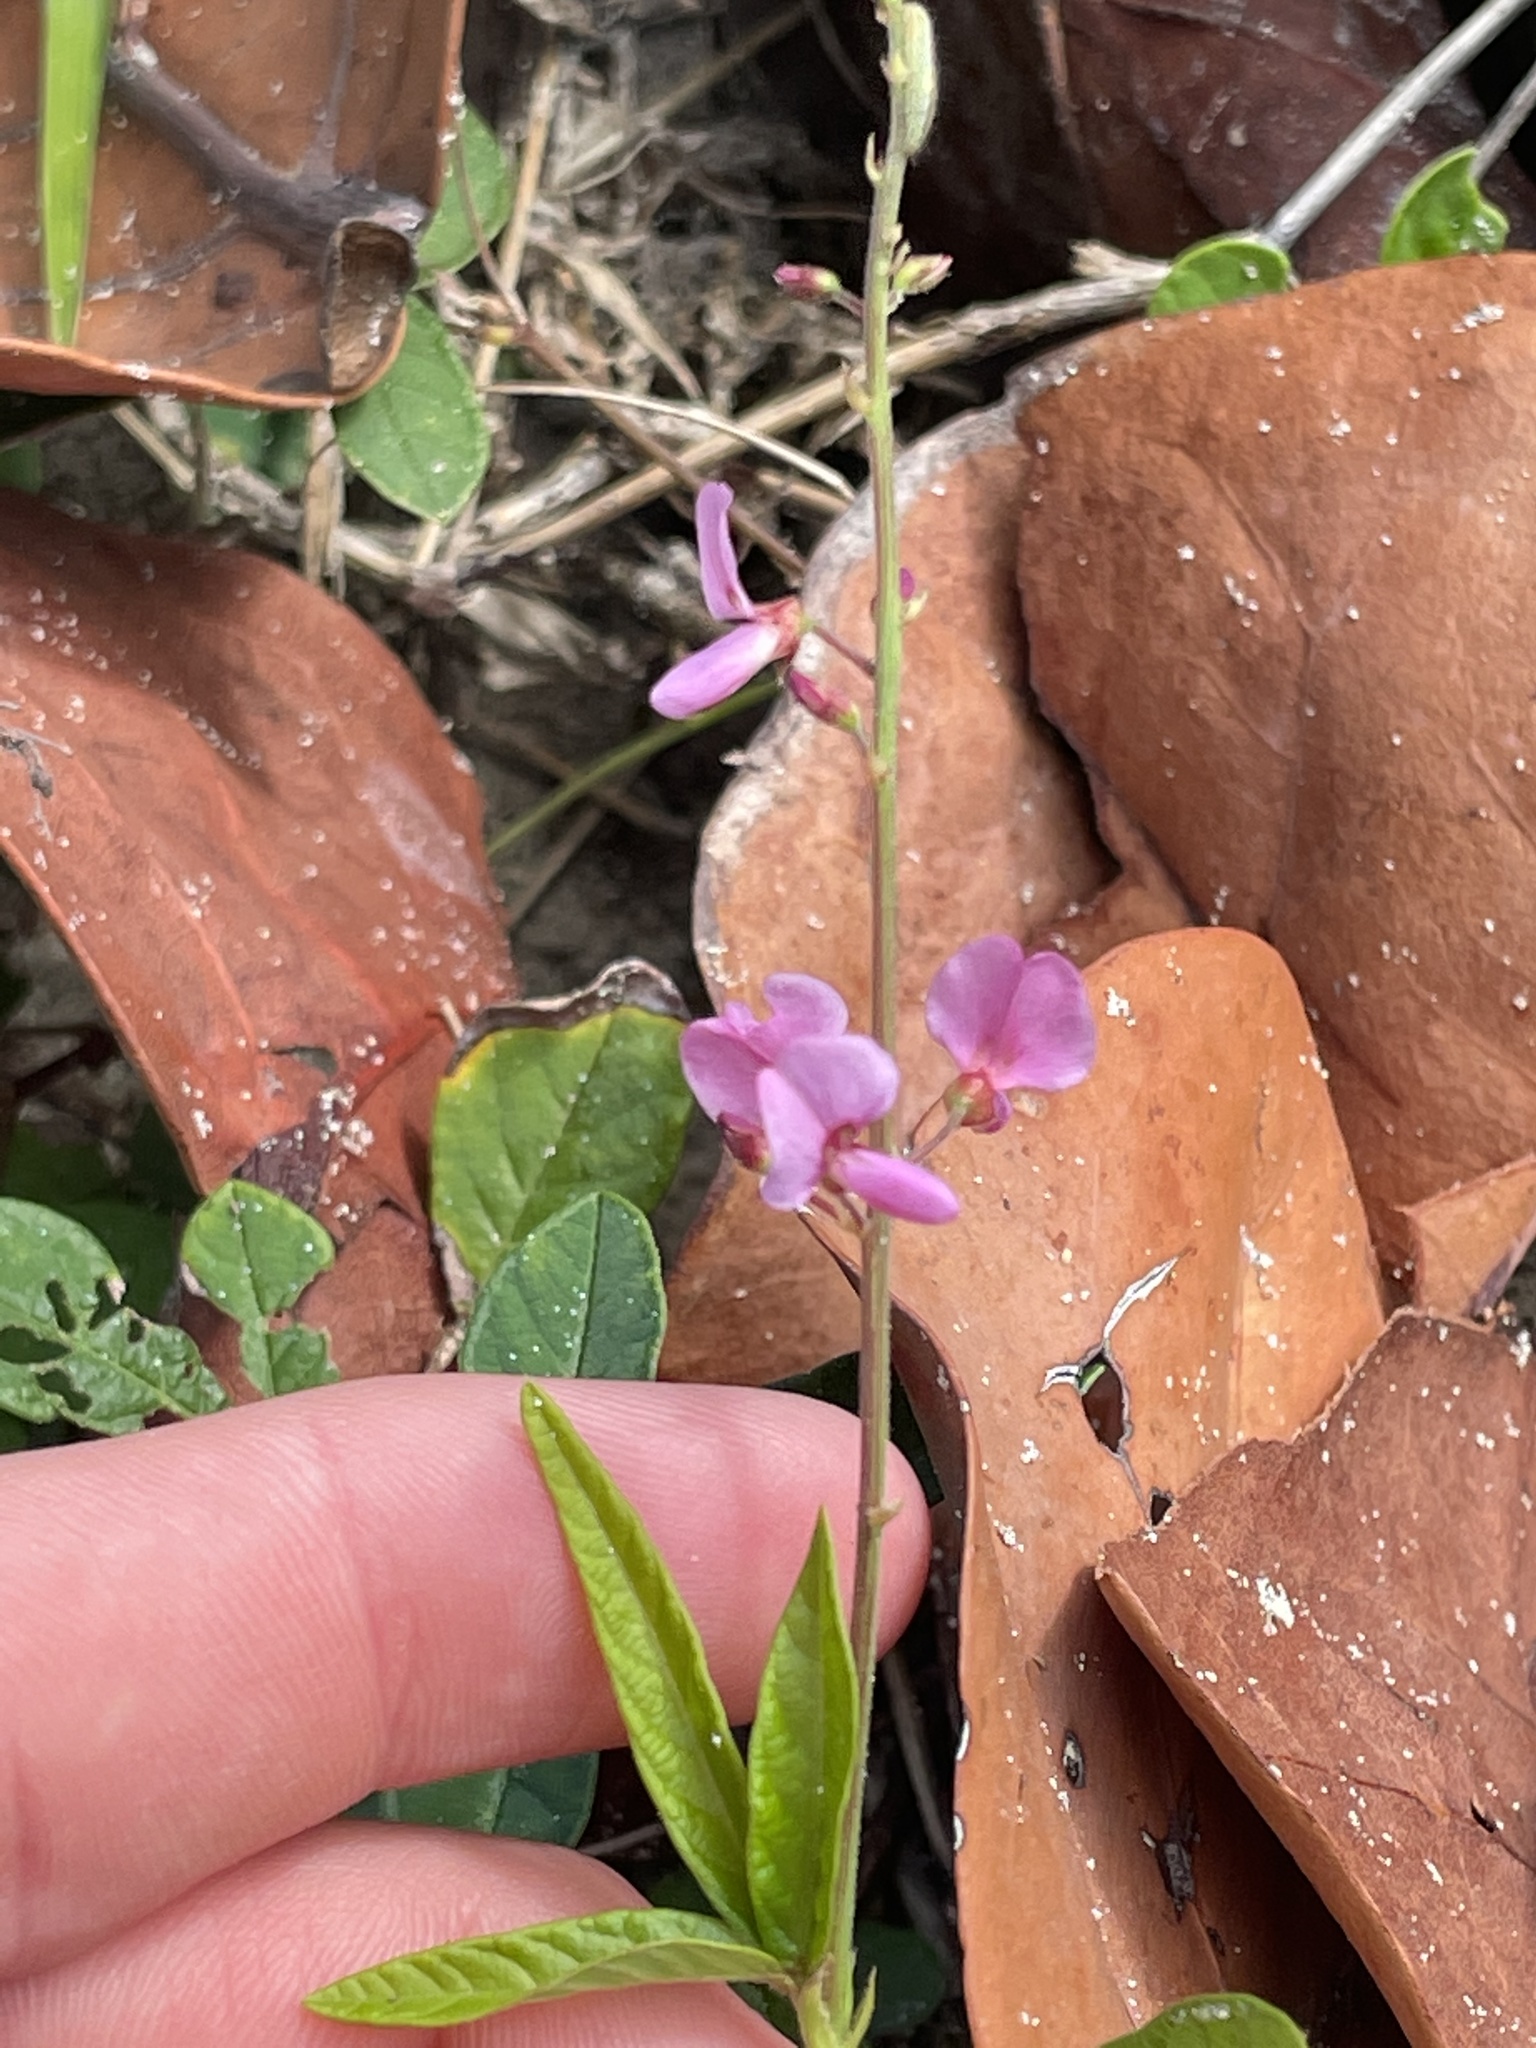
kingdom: Plantae
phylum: Tracheophyta
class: Magnoliopsida
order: Fabales
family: Fabaceae
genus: Desmodium
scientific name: Desmodium incanum
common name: Tickclover
